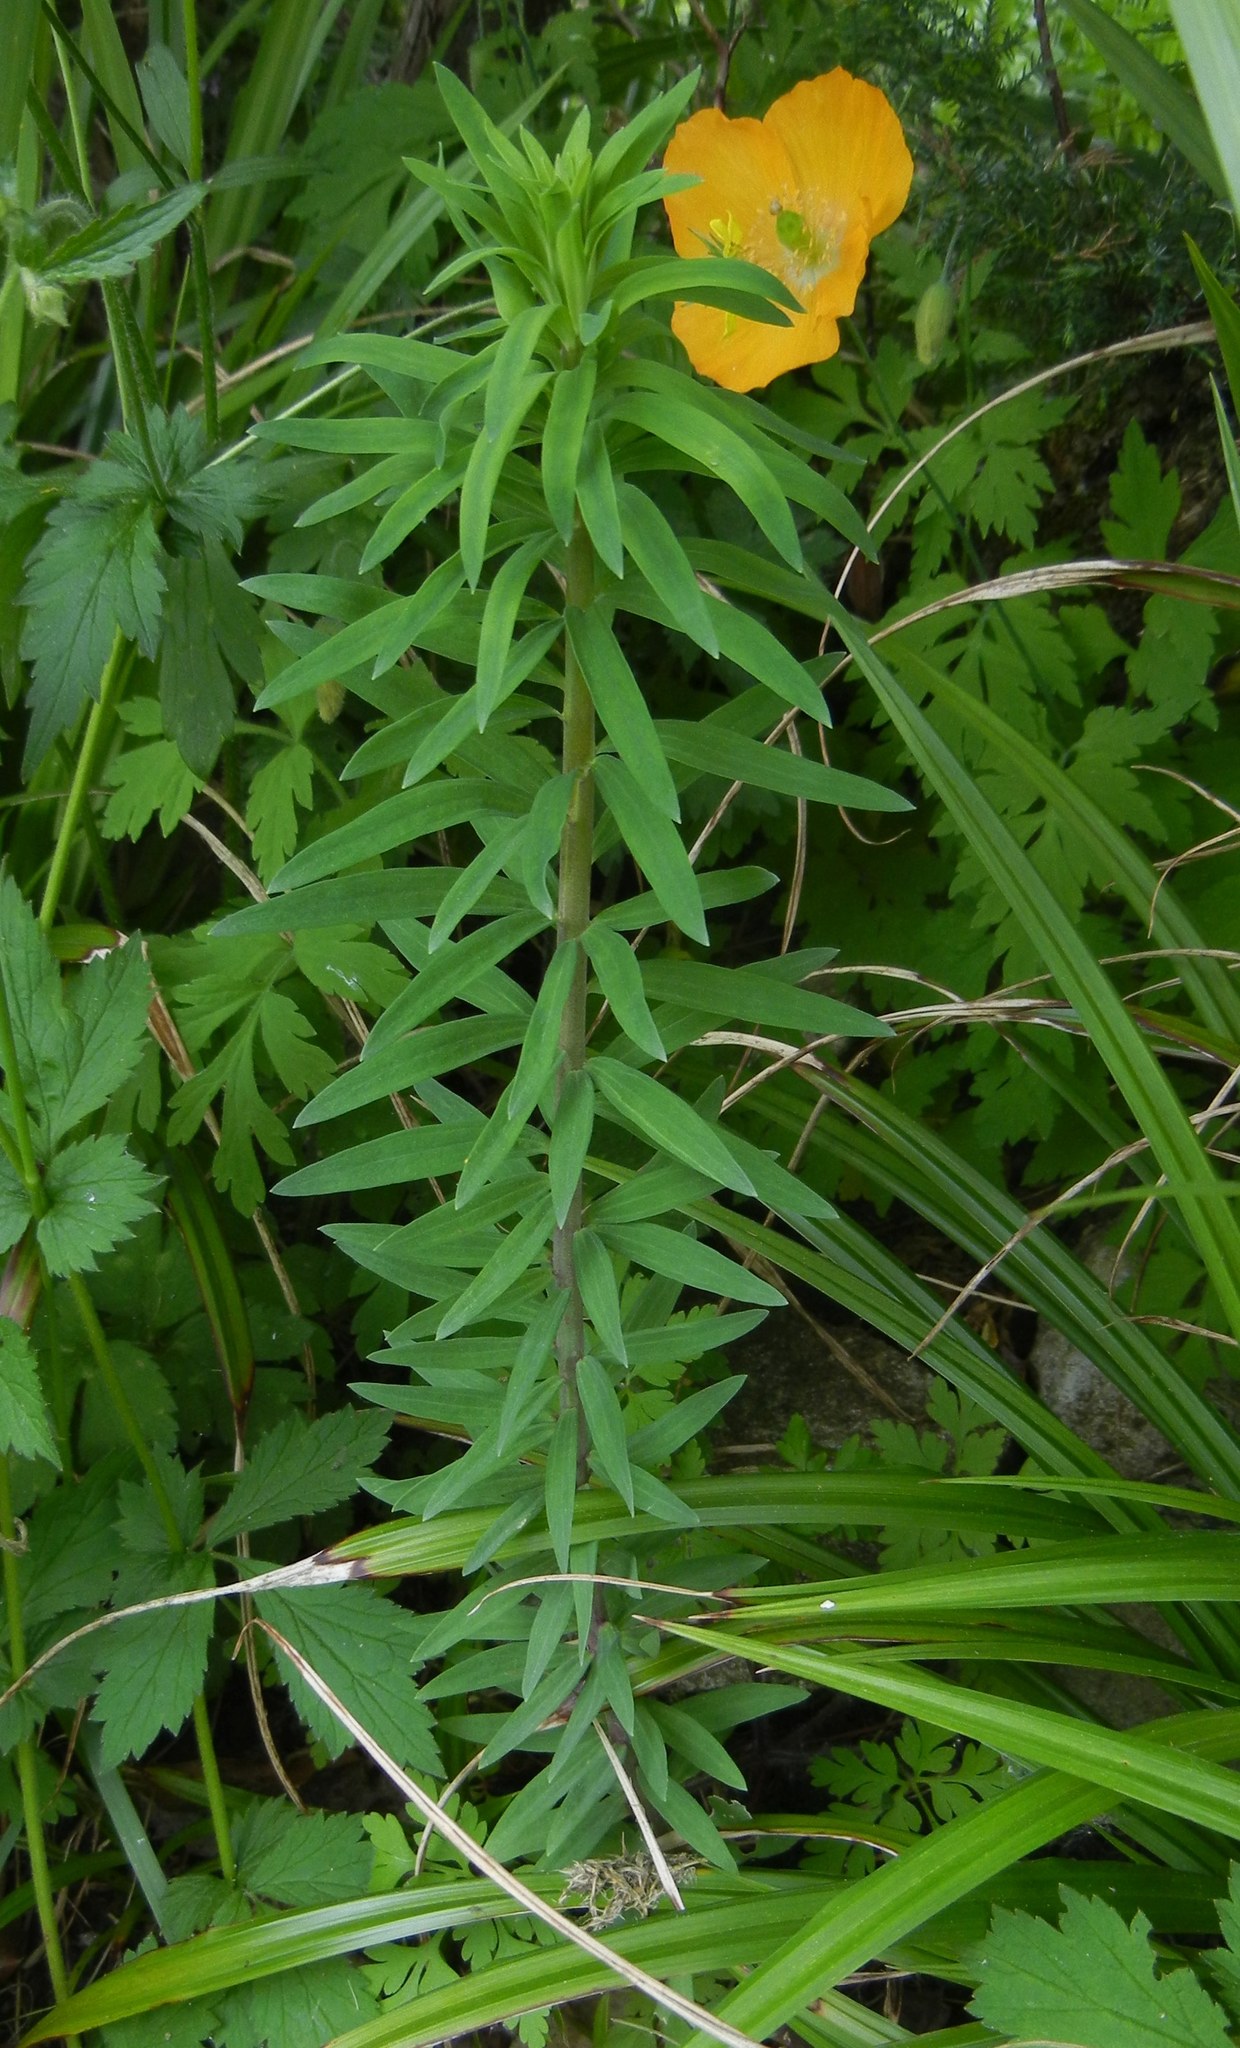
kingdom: Plantae
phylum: Tracheophyta
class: Magnoliopsida
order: Lamiales
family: Plantaginaceae
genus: Linaria
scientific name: Linaria purpurea
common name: Purple toadflax
